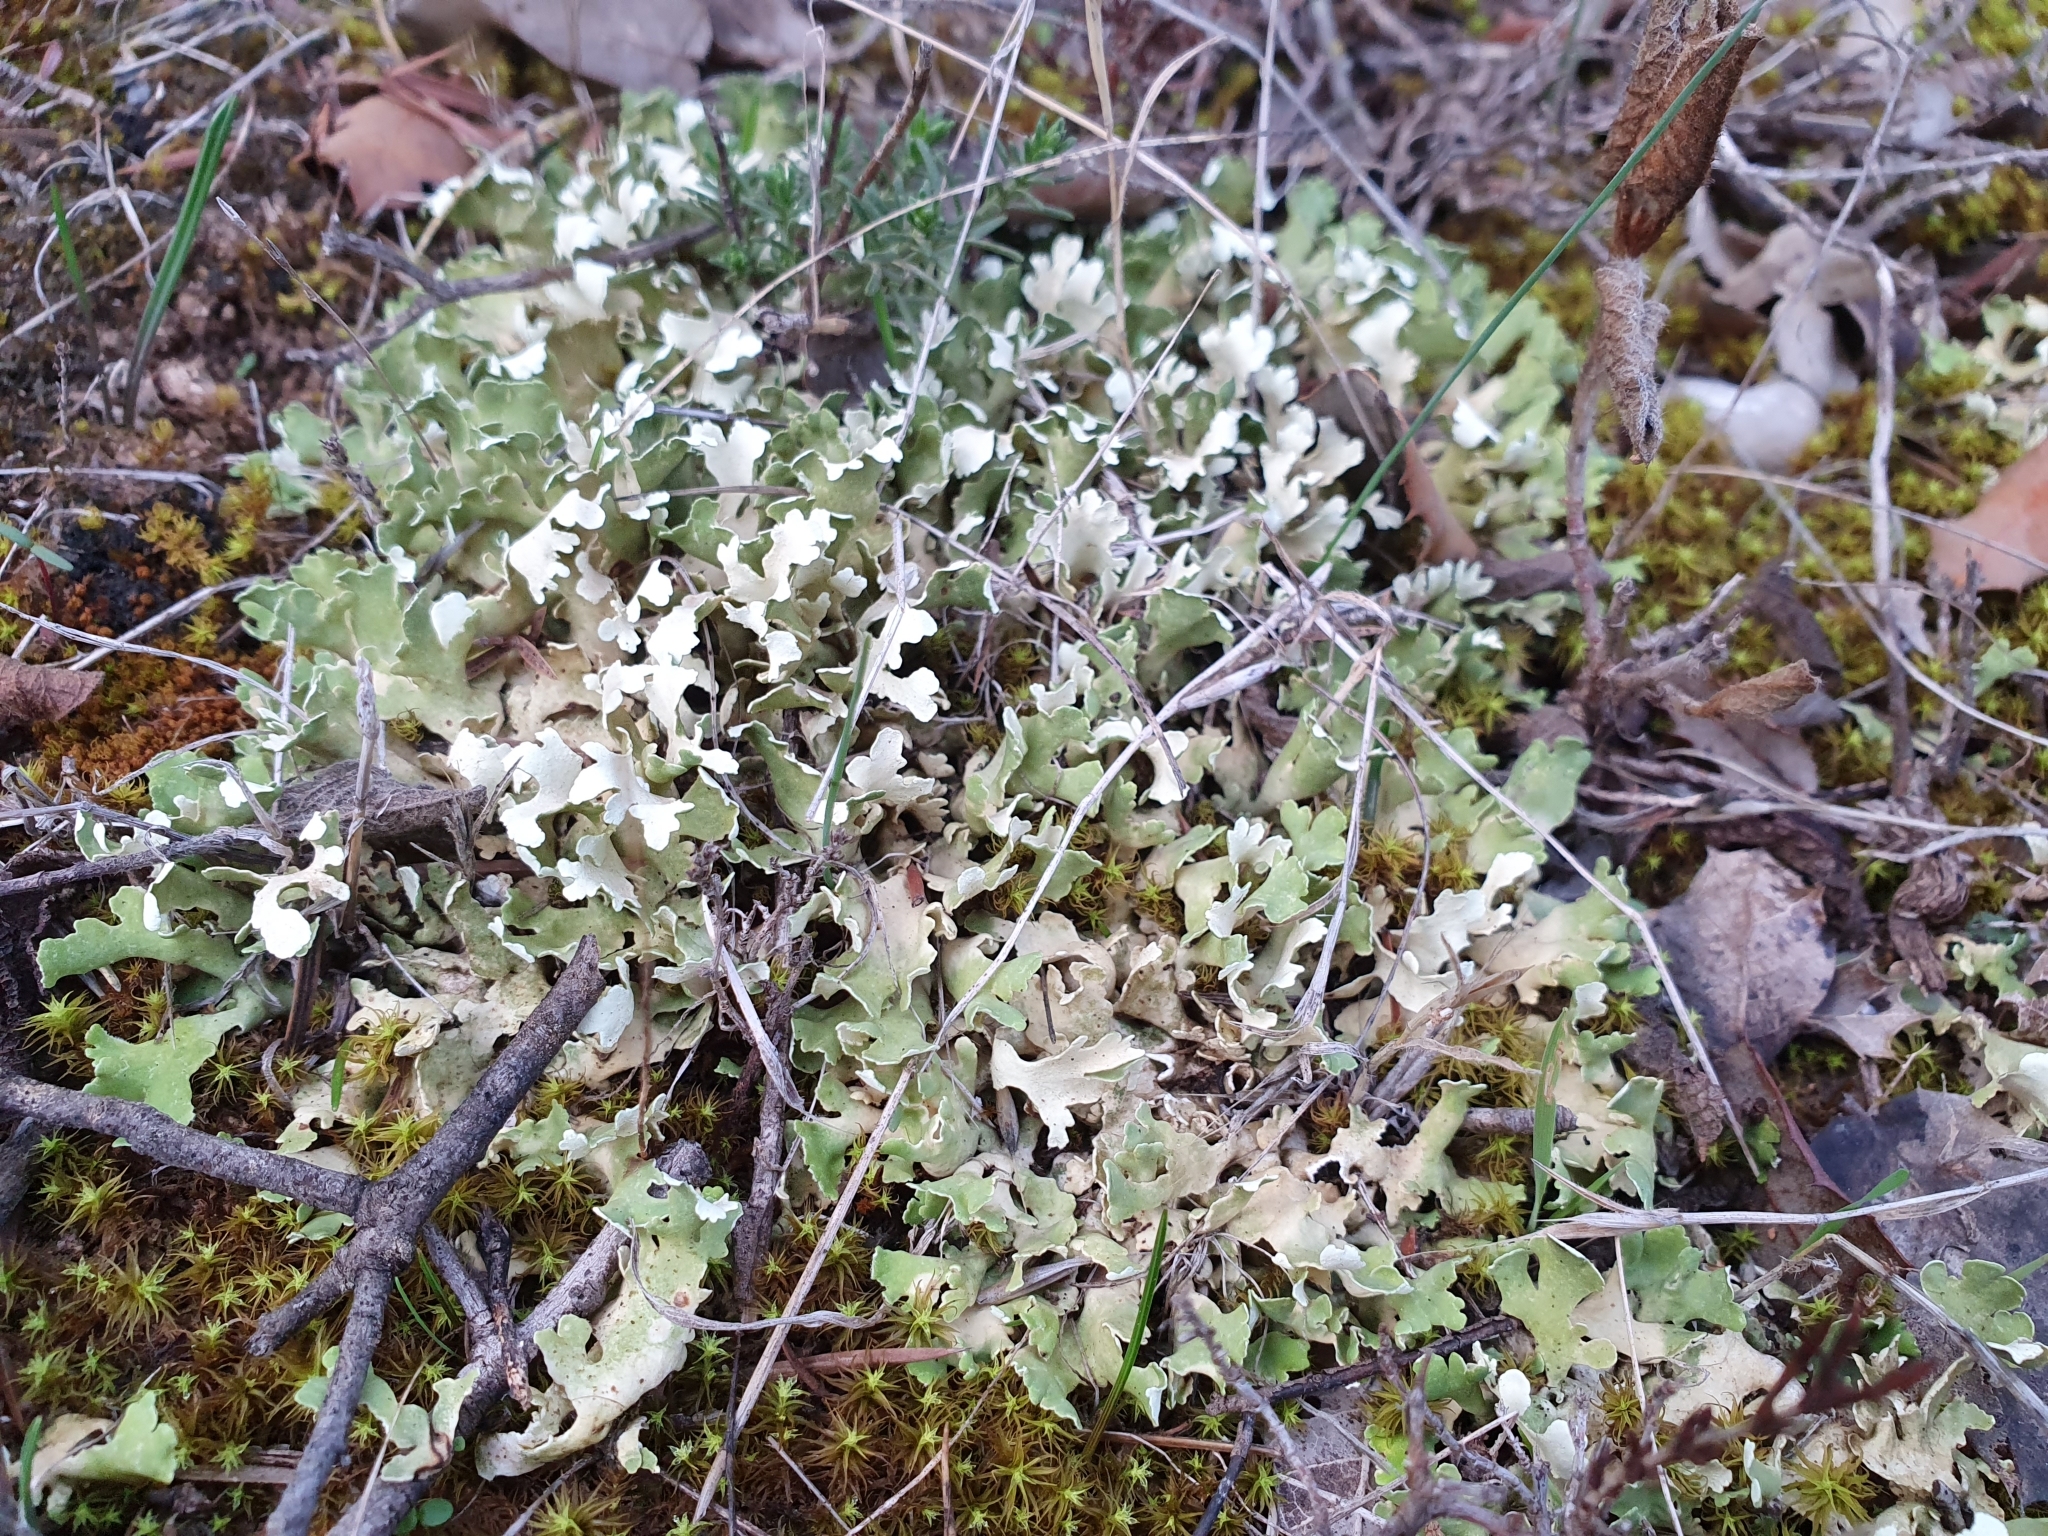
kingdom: Fungi
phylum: Ascomycota
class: Lecanoromycetes
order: Lecanorales
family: Cladoniaceae
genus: Cladonia
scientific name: Cladonia foliacea
